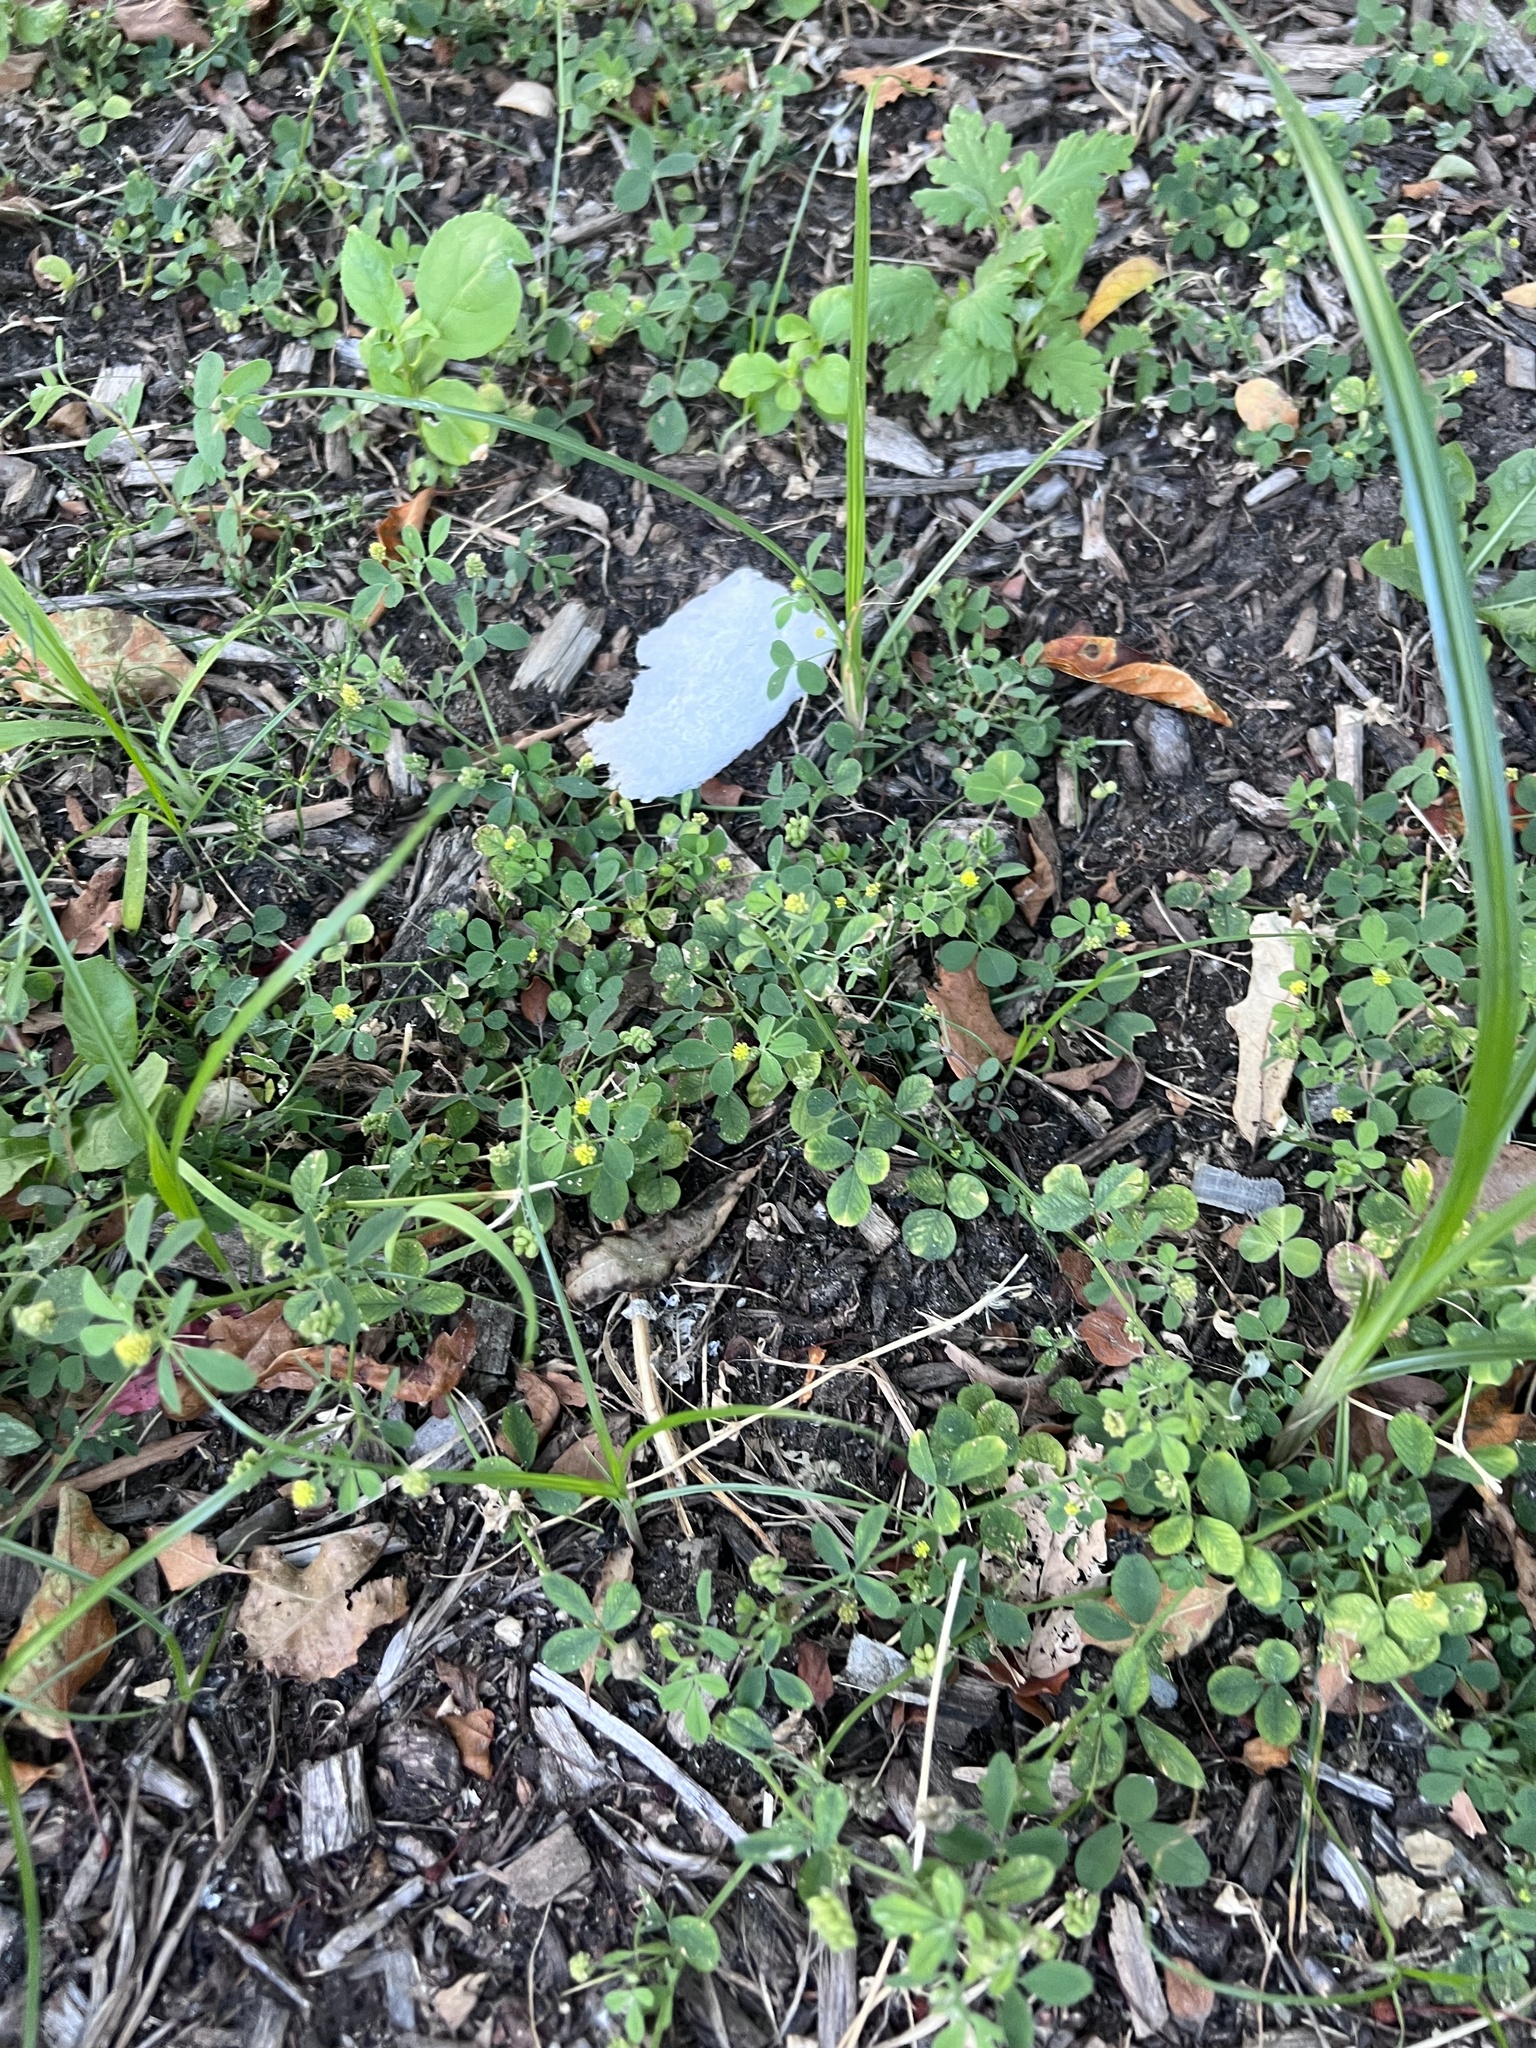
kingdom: Plantae
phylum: Tracheophyta
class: Magnoliopsida
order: Fabales
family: Fabaceae
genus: Medicago
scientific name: Medicago lupulina
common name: Black medick
